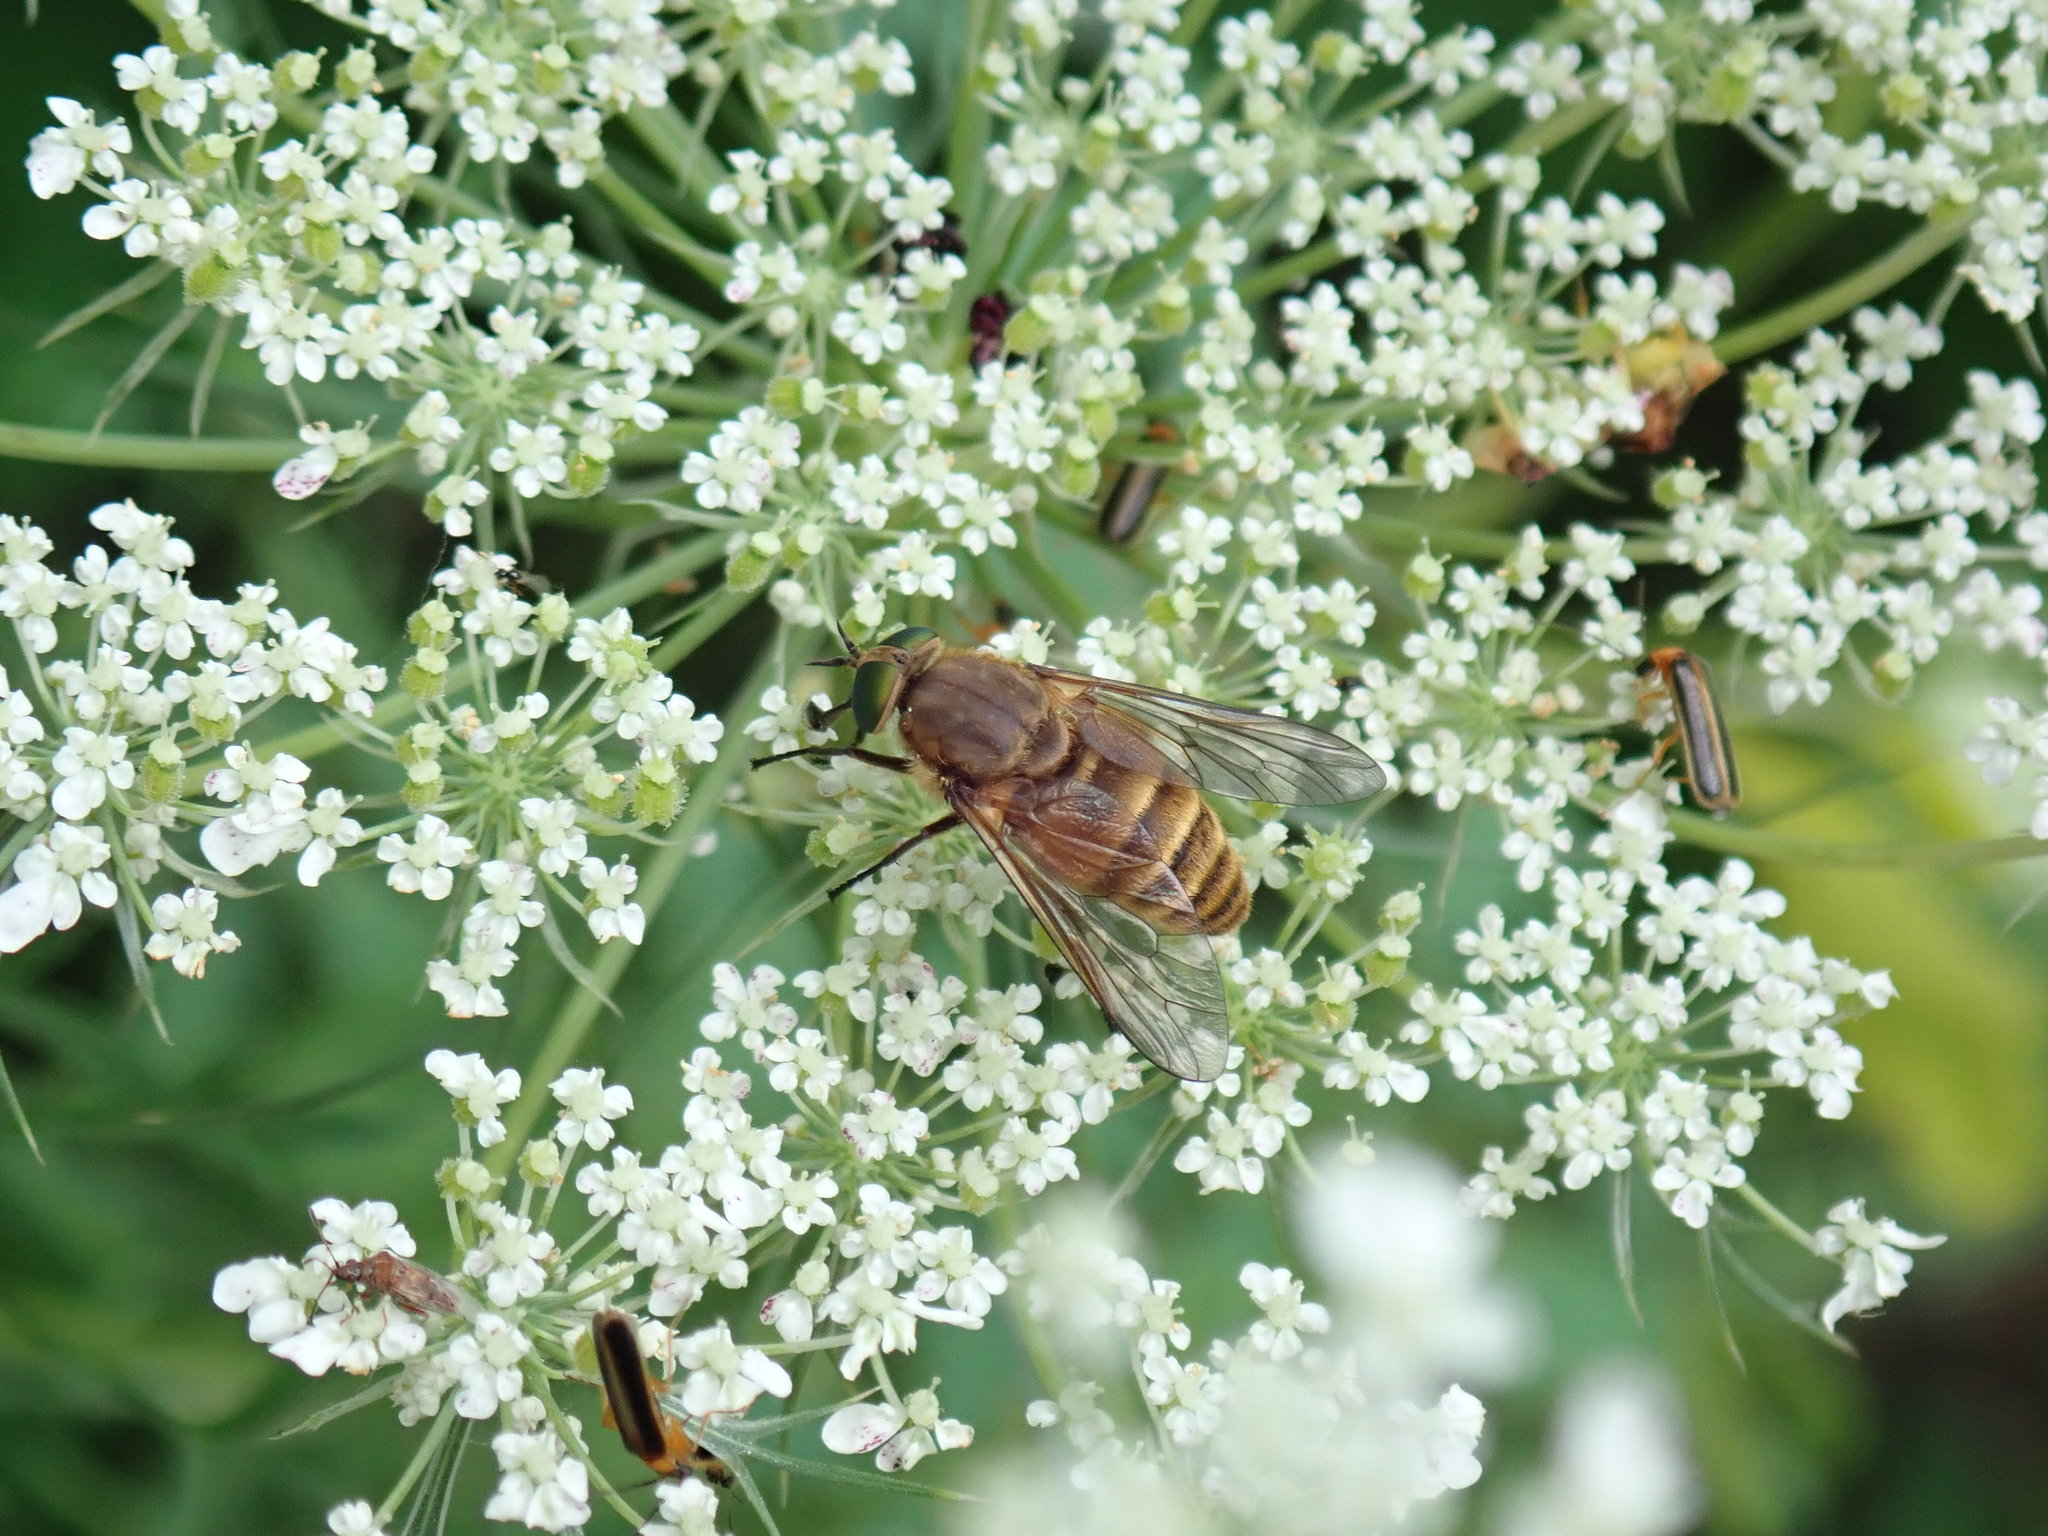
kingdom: Animalia
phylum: Arthropoda
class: Insecta
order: Diptera
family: Tabanidae
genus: Stonemyia
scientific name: Stonemyia tranquilla
